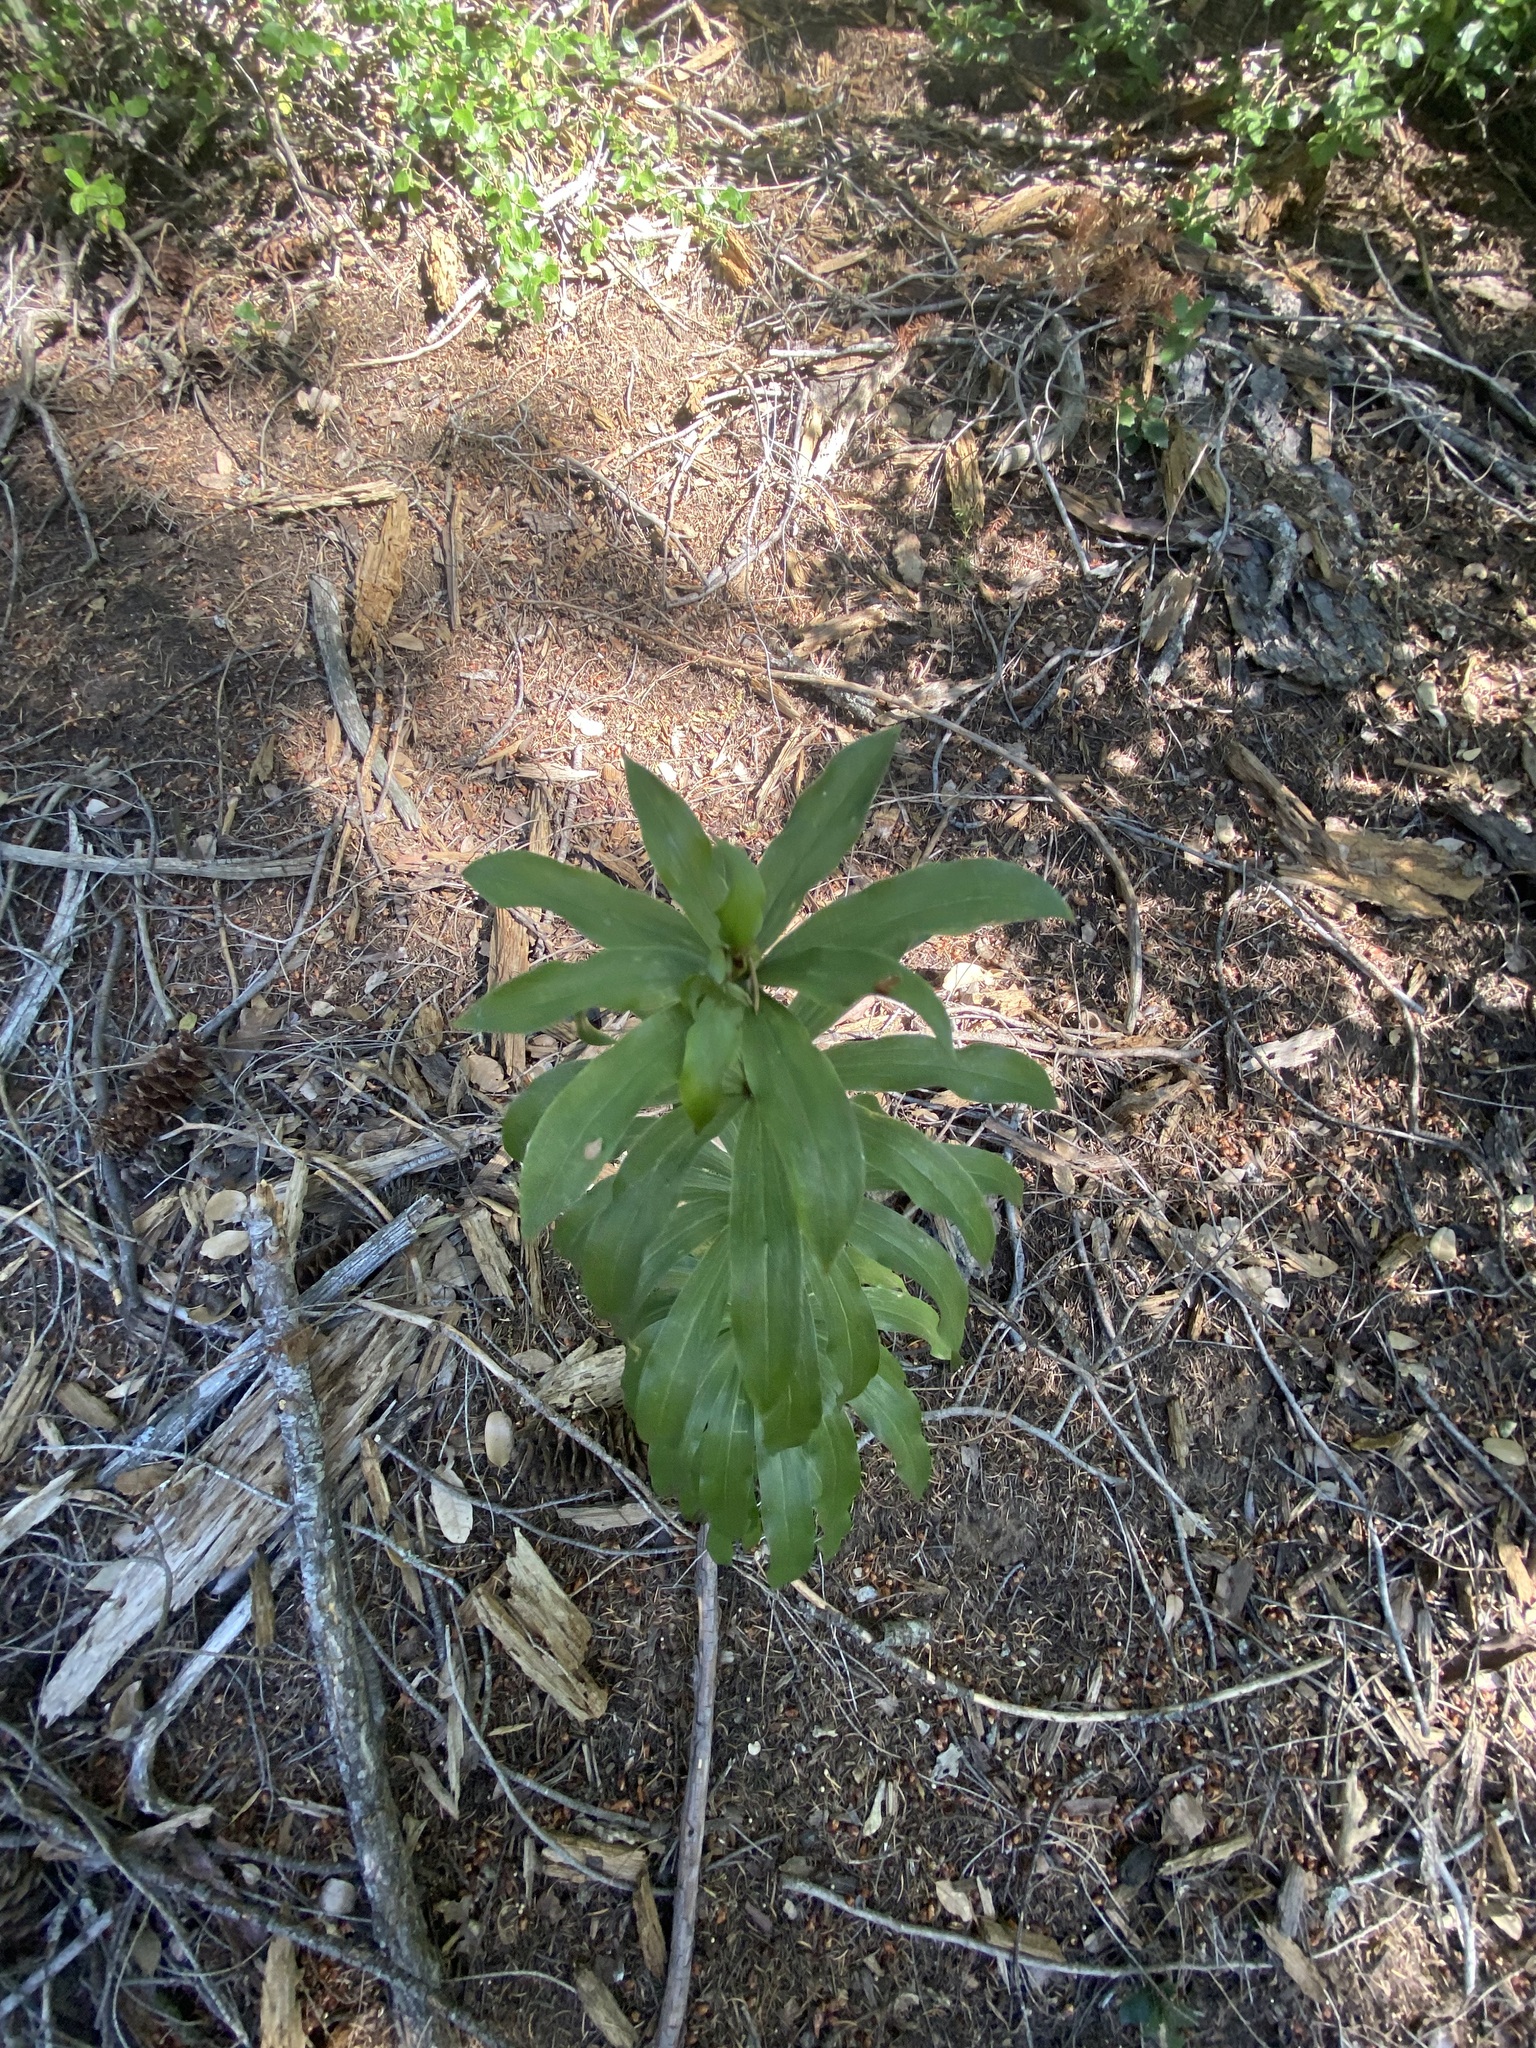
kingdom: Plantae
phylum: Tracheophyta
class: Liliopsida
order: Liliales
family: Liliaceae
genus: Lilium
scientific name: Lilium humboldtii
